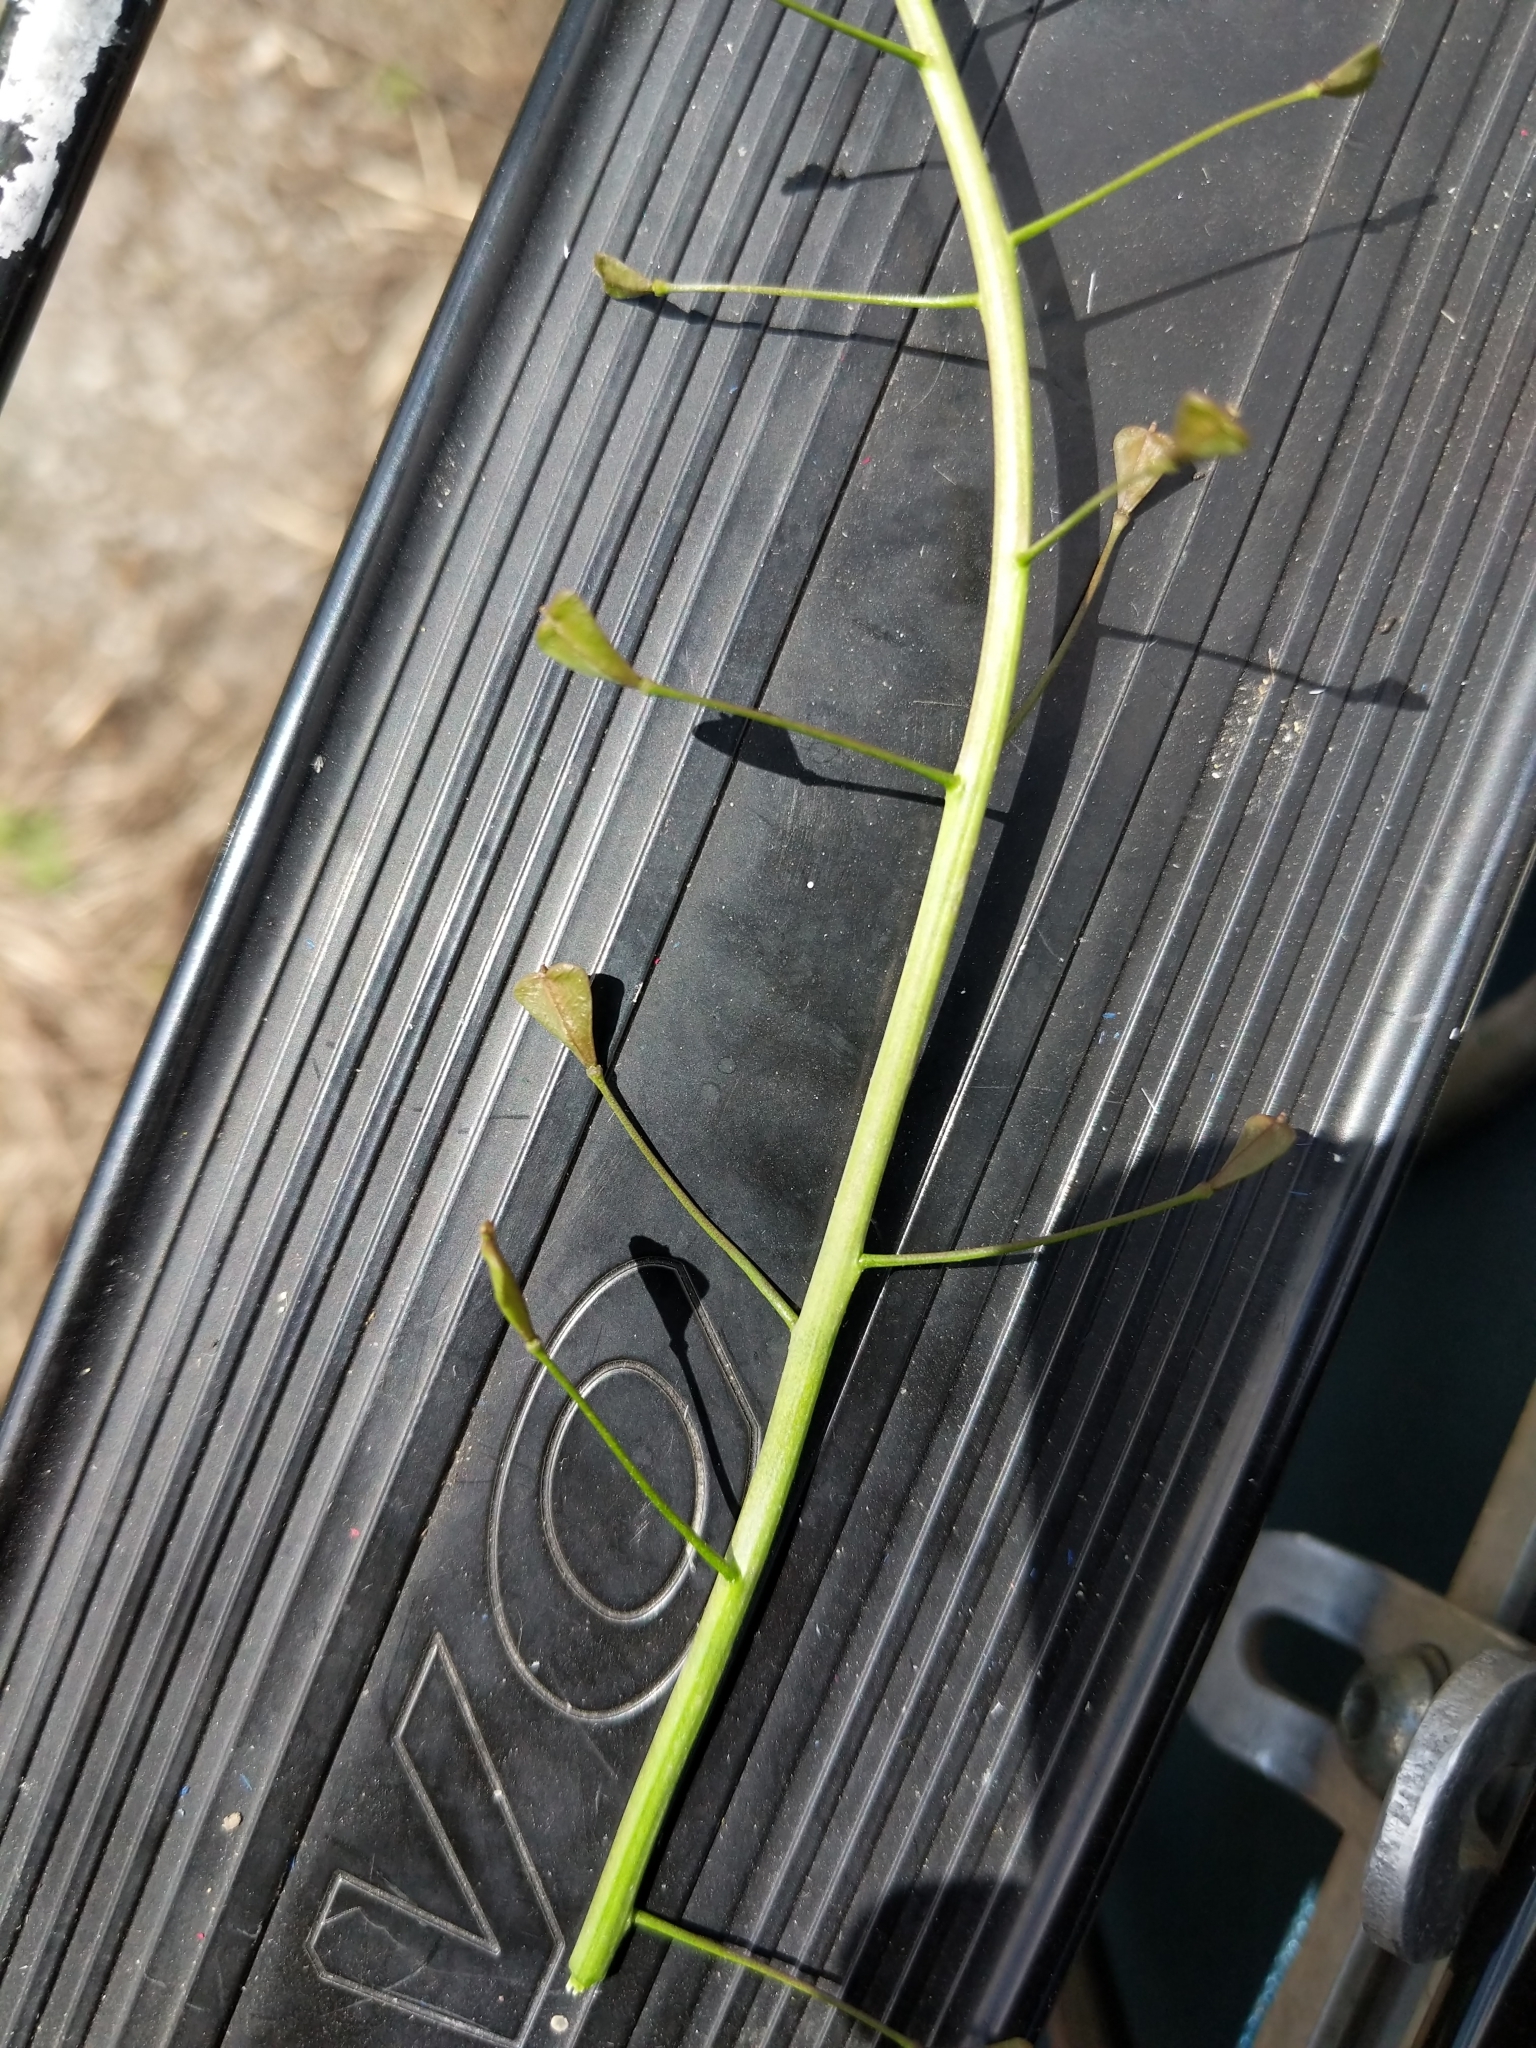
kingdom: Plantae
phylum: Tracheophyta
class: Magnoliopsida
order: Brassicales
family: Brassicaceae
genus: Capsella
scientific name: Capsella bursa-pastoris
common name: Shepherd's purse
